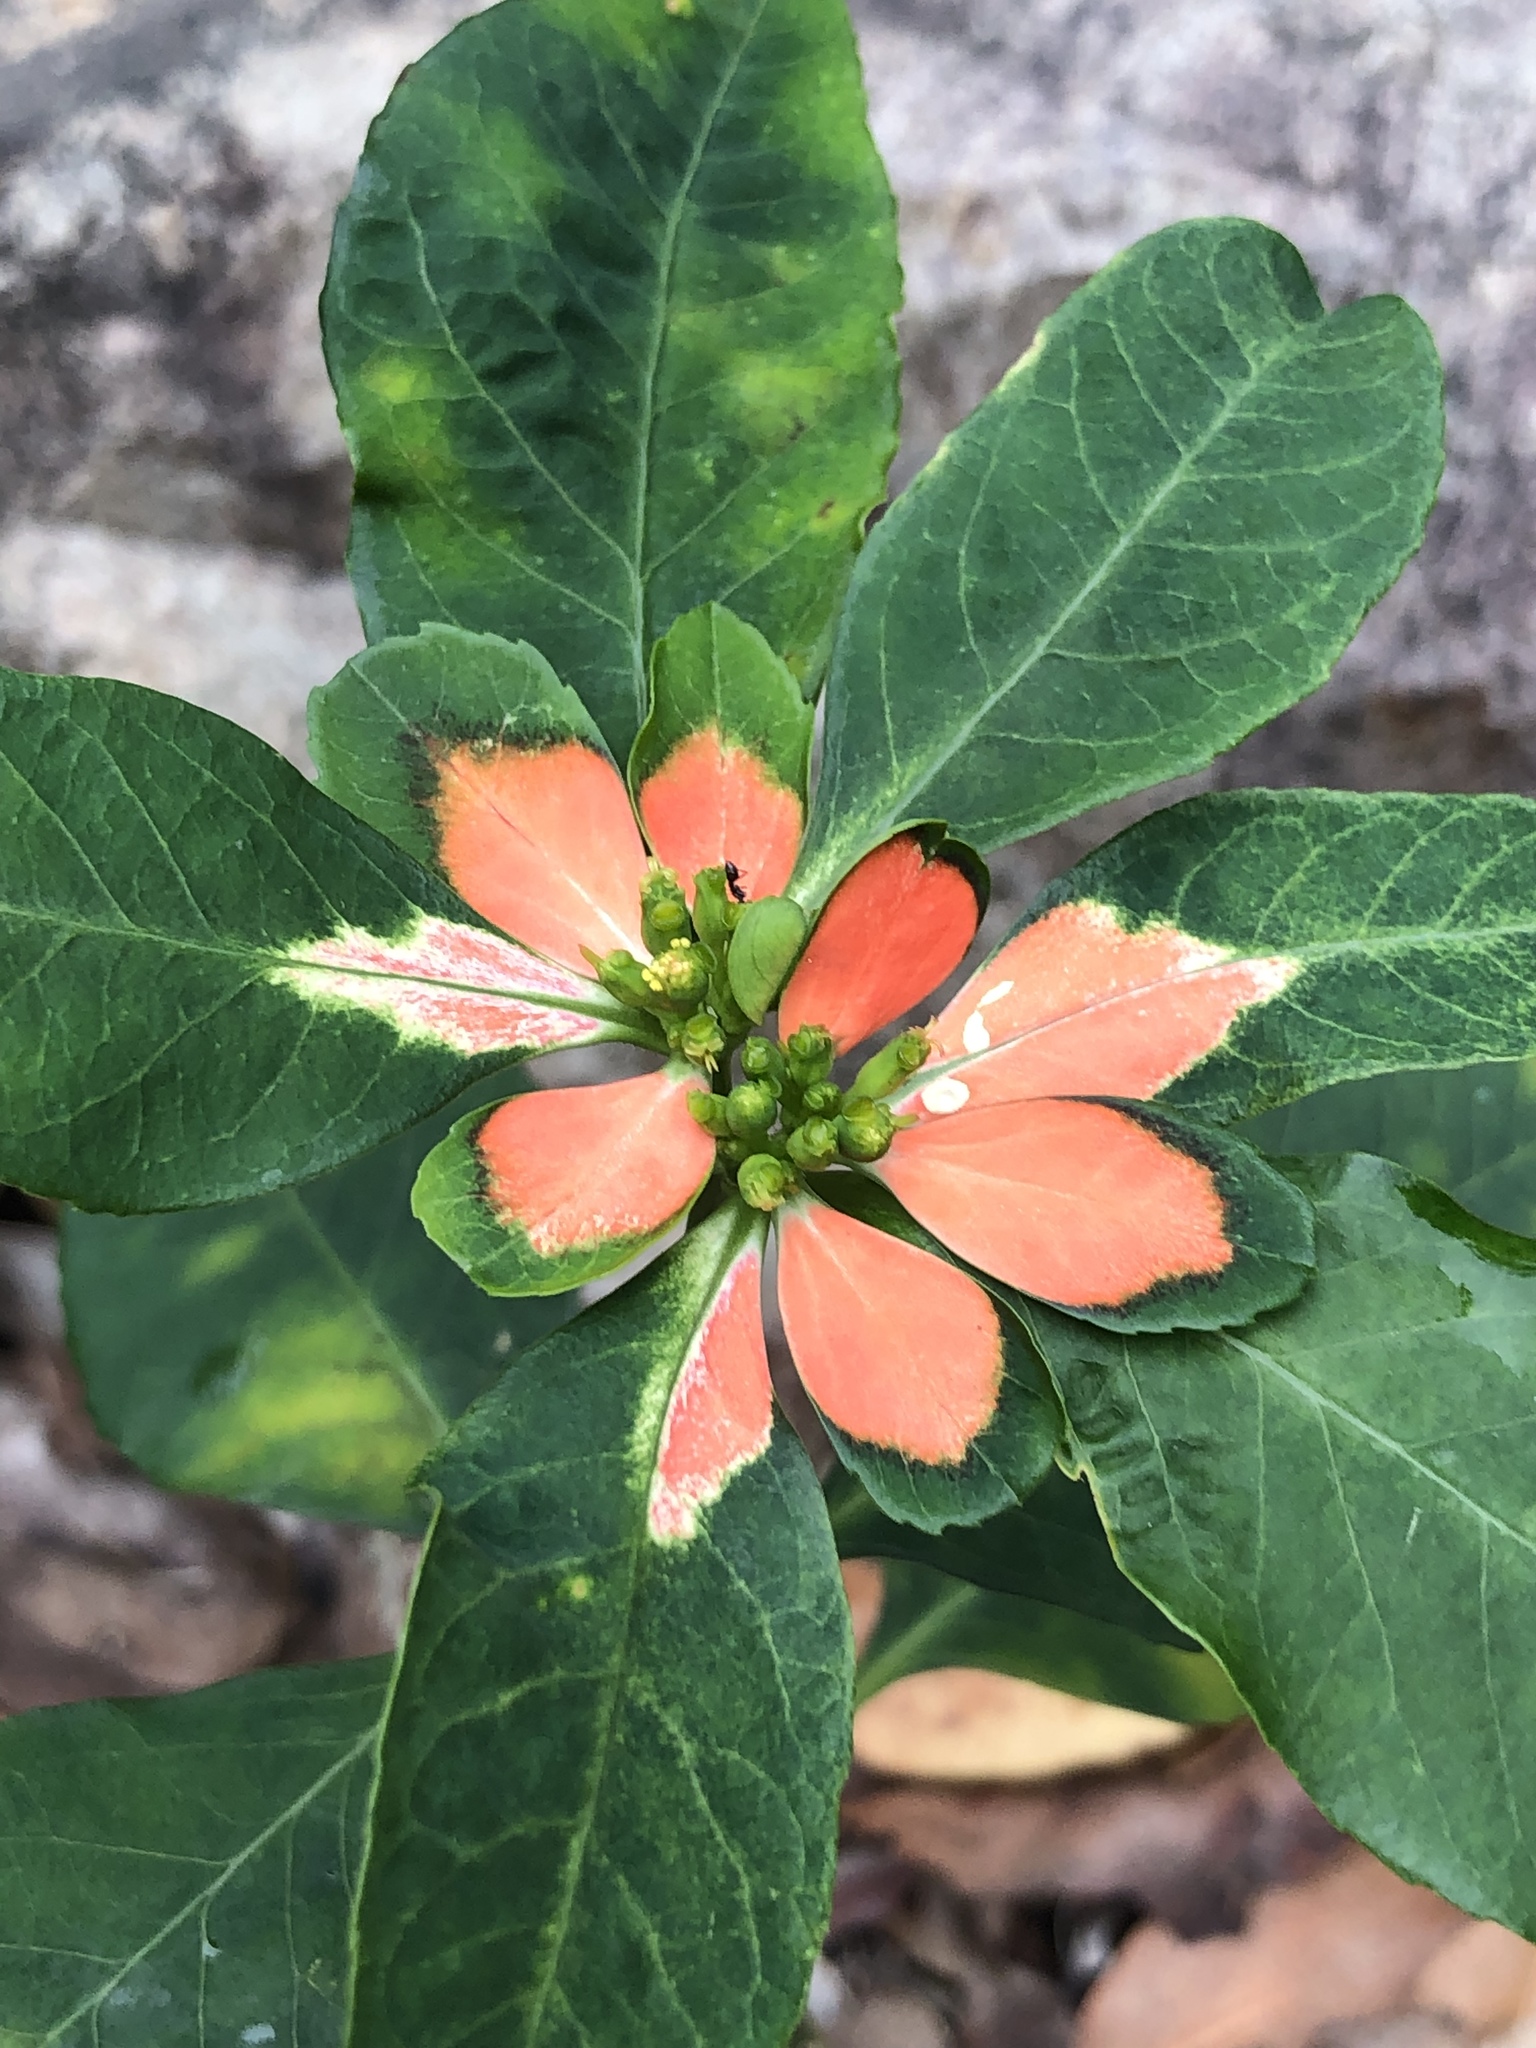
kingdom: Plantae
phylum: Tracheophyta
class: Magnoliopsida
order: Malpighiales
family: Euphorbiaceae
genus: Euphorbia
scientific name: Euphorbia heterophylla
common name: Mexican fireplant
